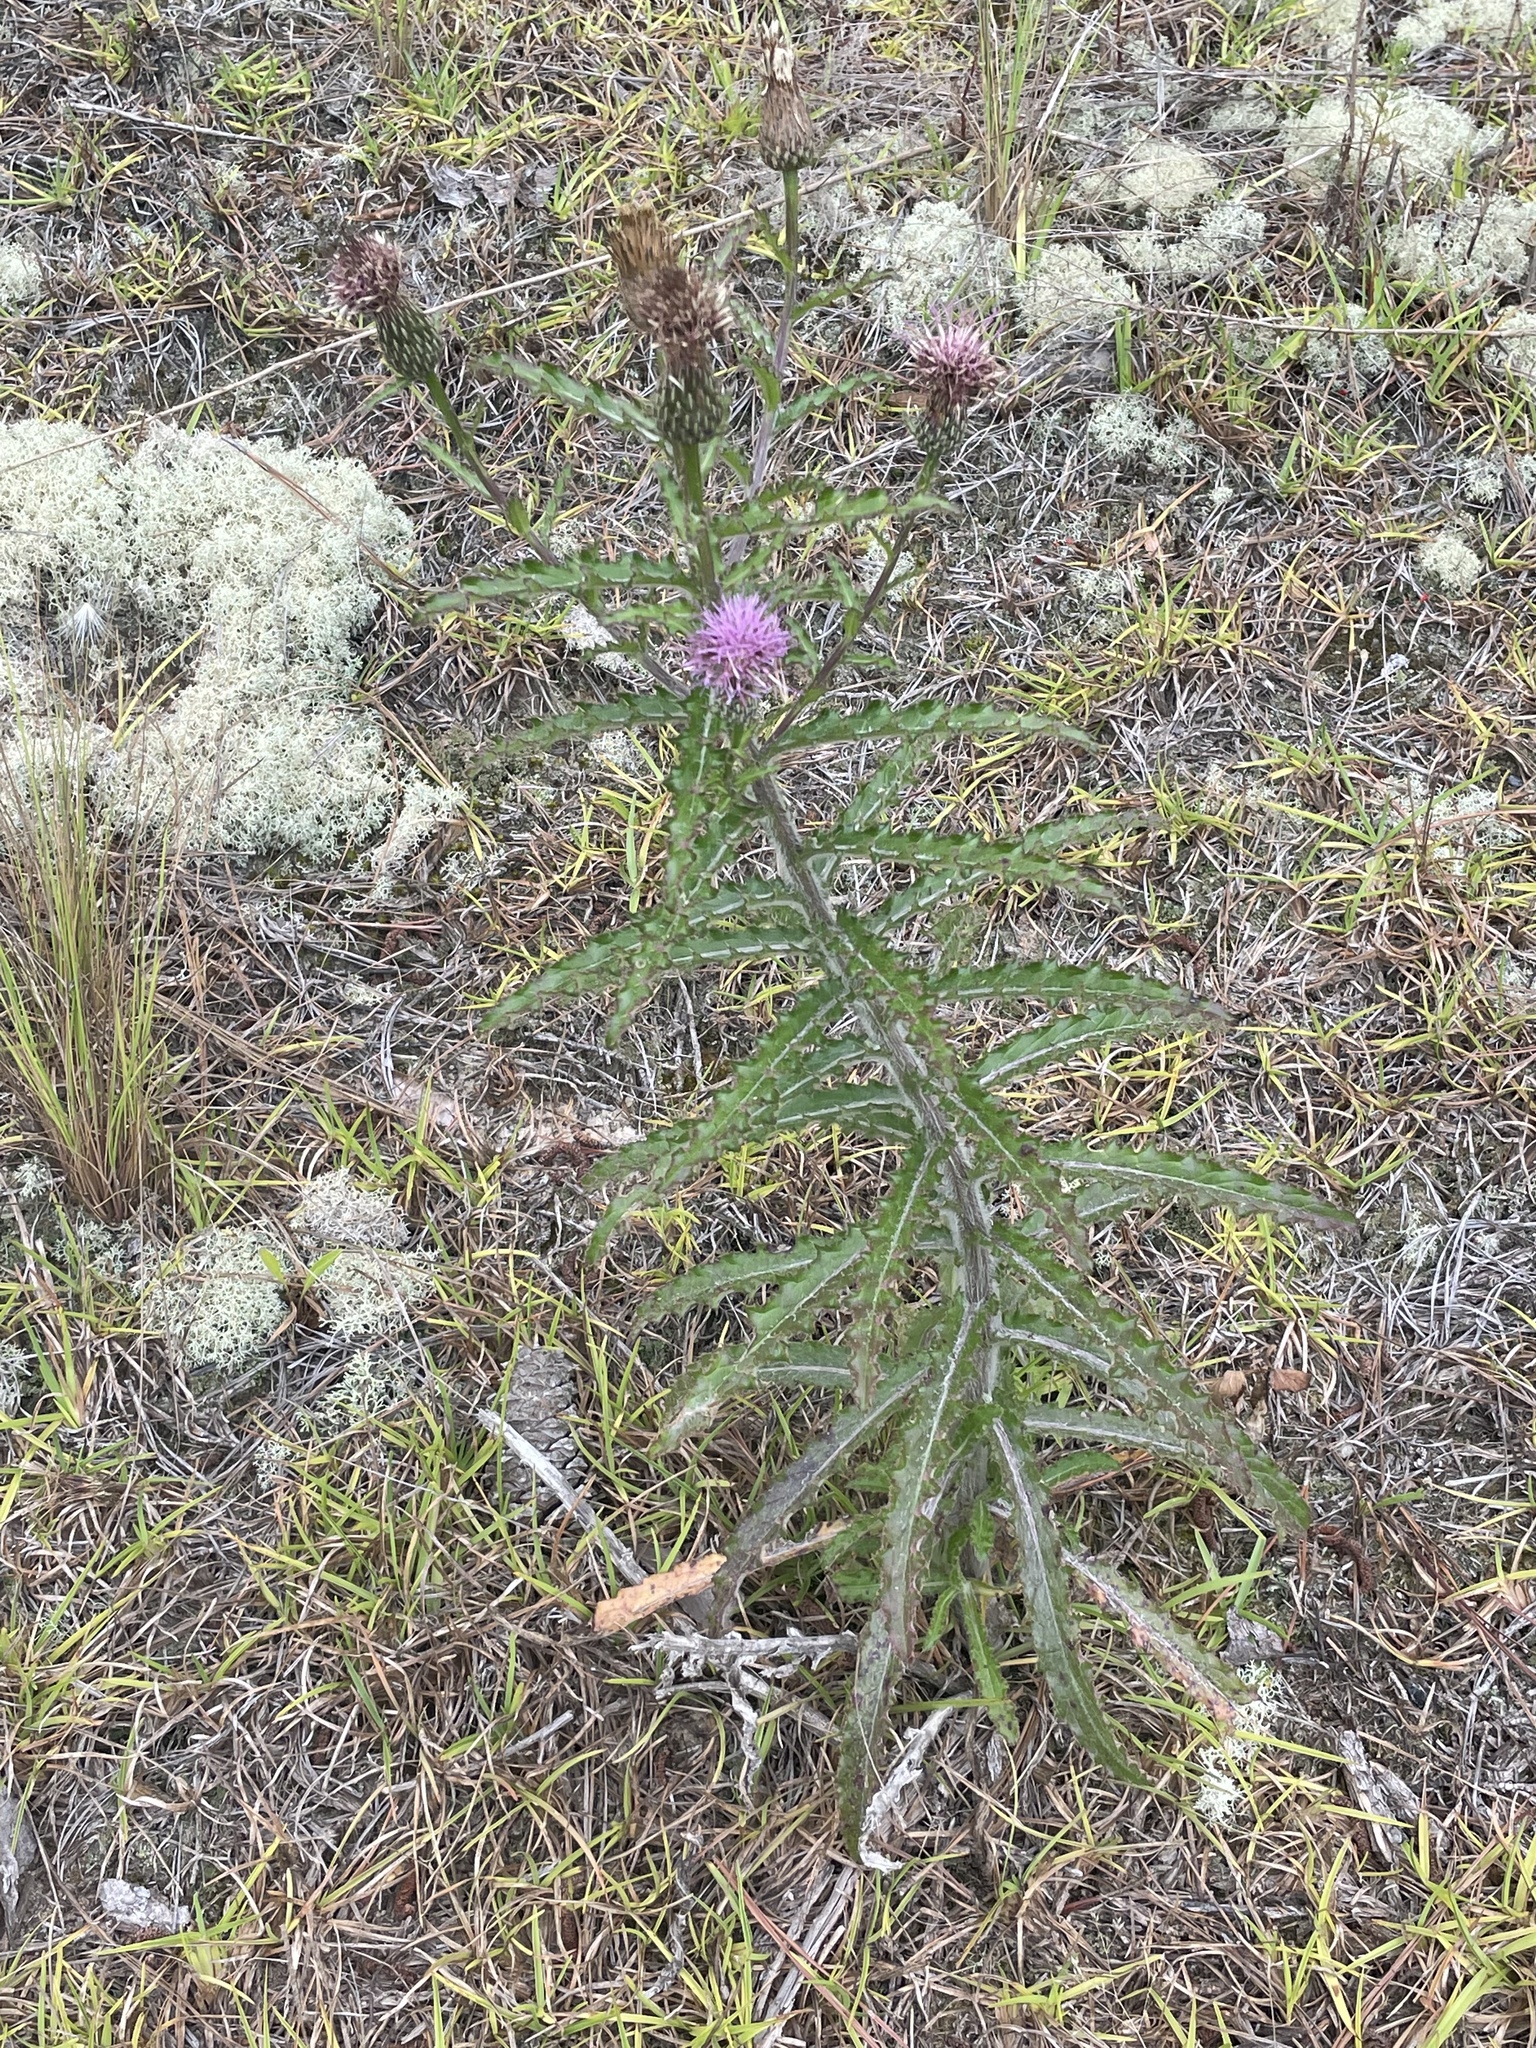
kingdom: Plantae
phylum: Tracheophyta
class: Magnoliopsida
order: Asterales
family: Asteraceae
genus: Cirsium
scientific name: Cirsium repandum
